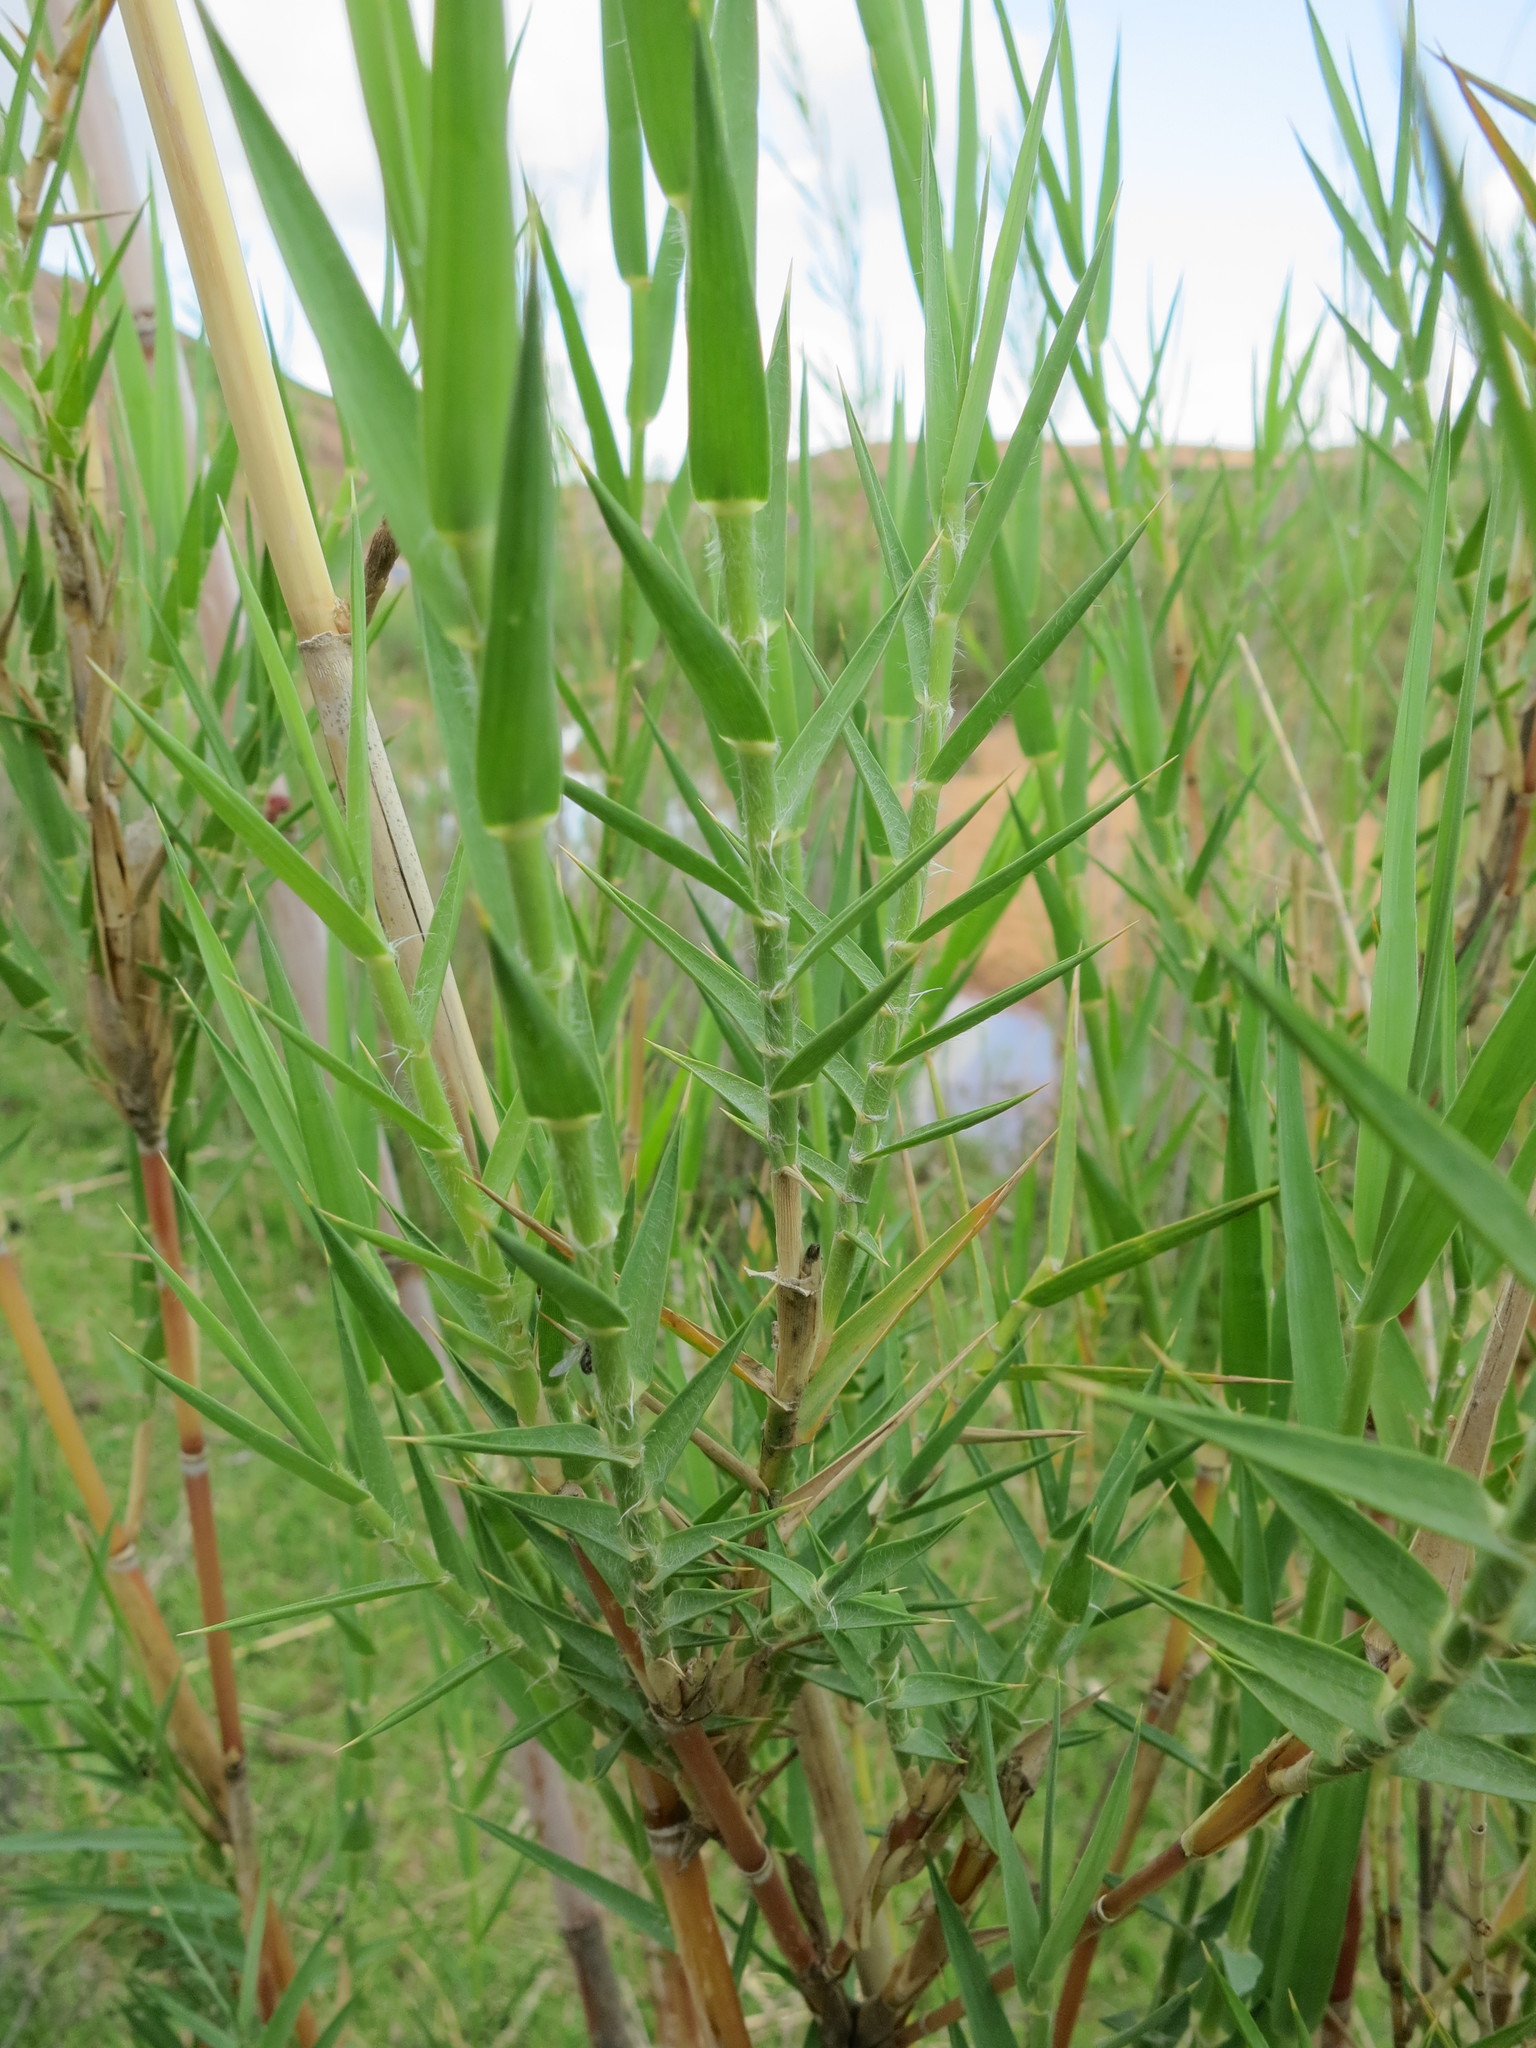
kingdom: Plantae
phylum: Tracheophyta
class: Liliopsida
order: Poales
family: Poaceae
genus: Phragmites
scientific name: Phragmites mauritianus
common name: Reed grass
